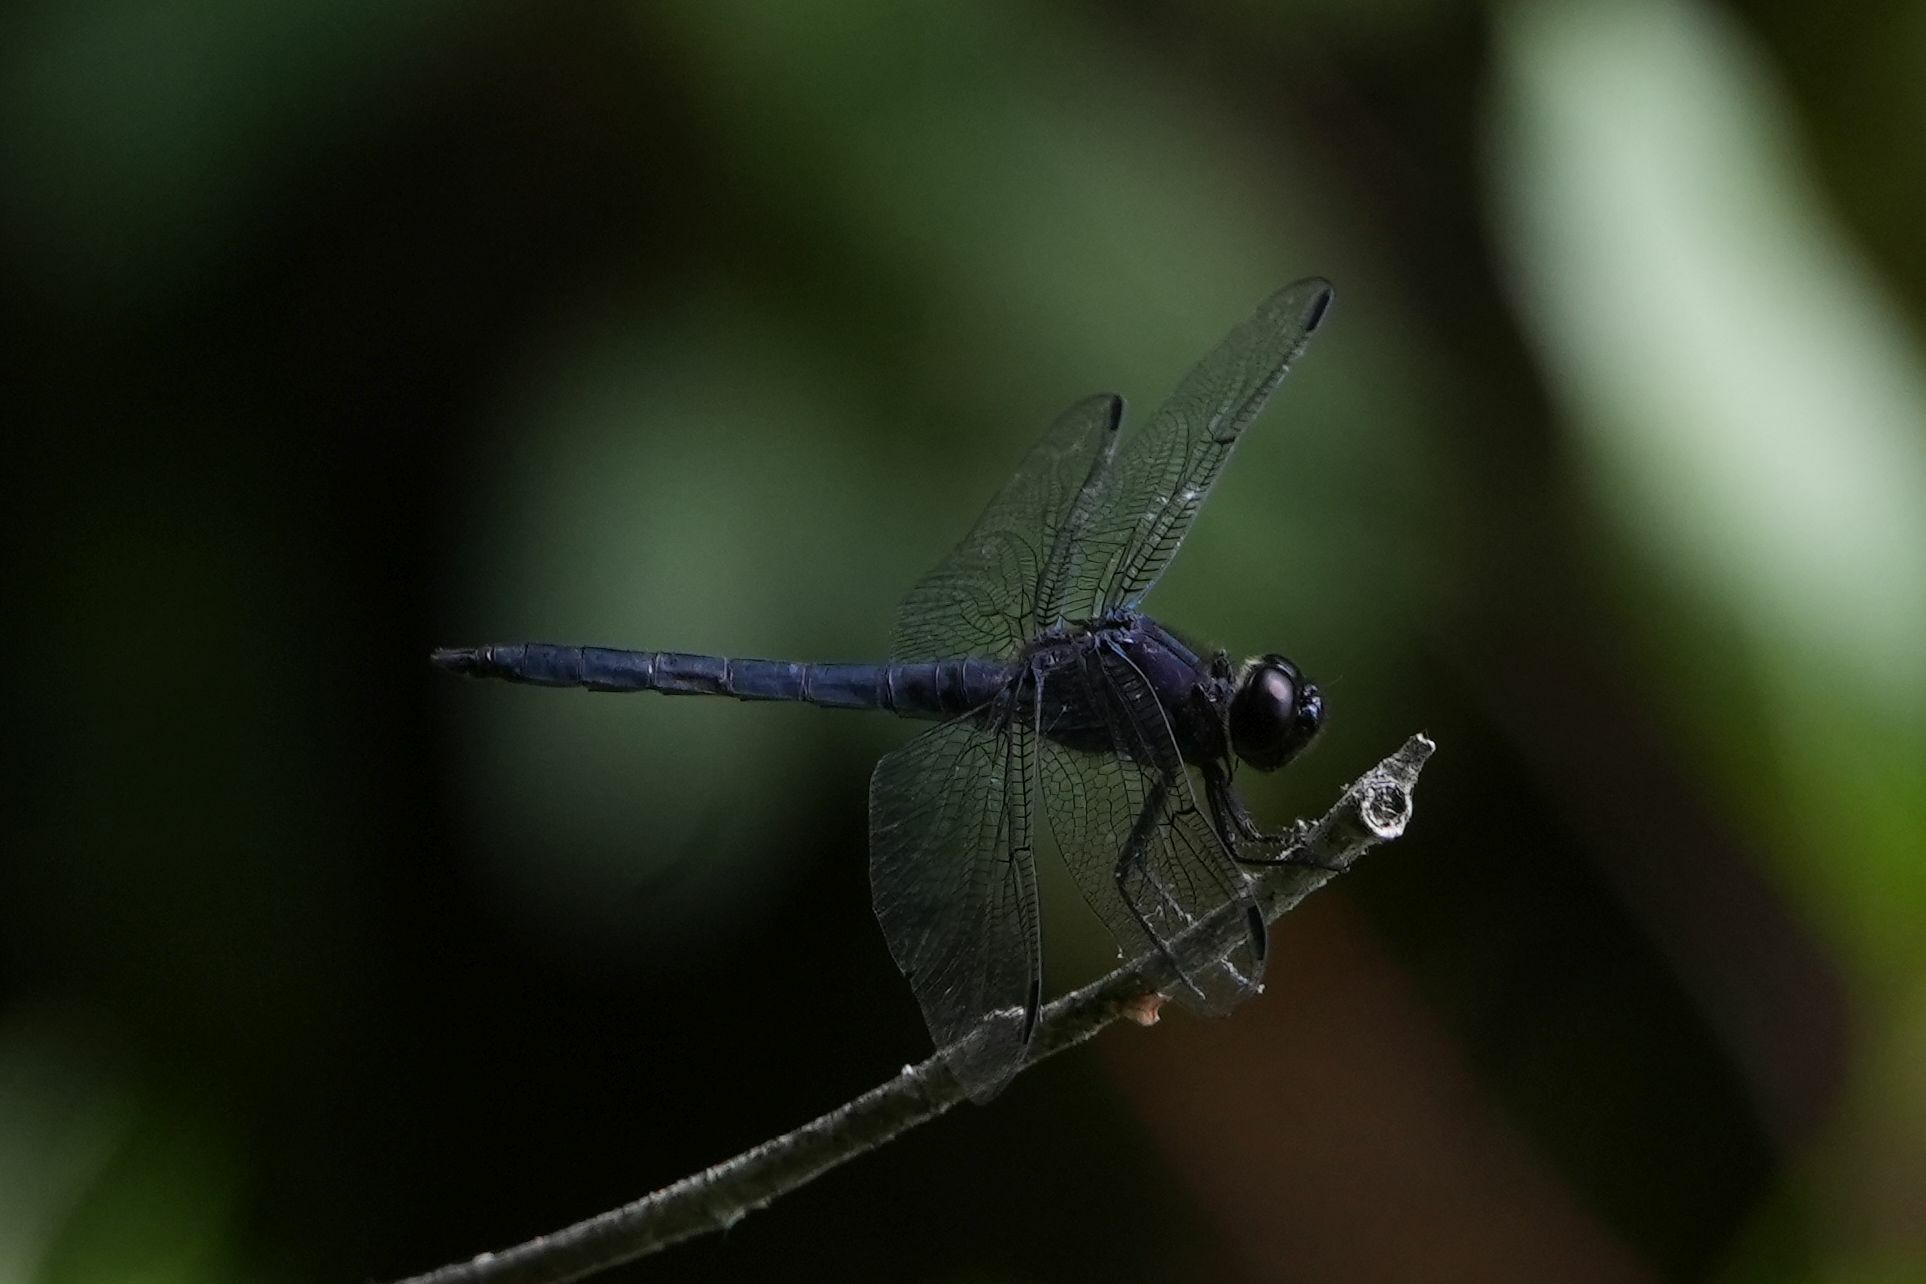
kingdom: Animalia
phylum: Arthropoda
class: Insecta
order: Odonata
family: Libellulidae
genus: Libellula
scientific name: Libellula incesta
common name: Slaty skimmer
